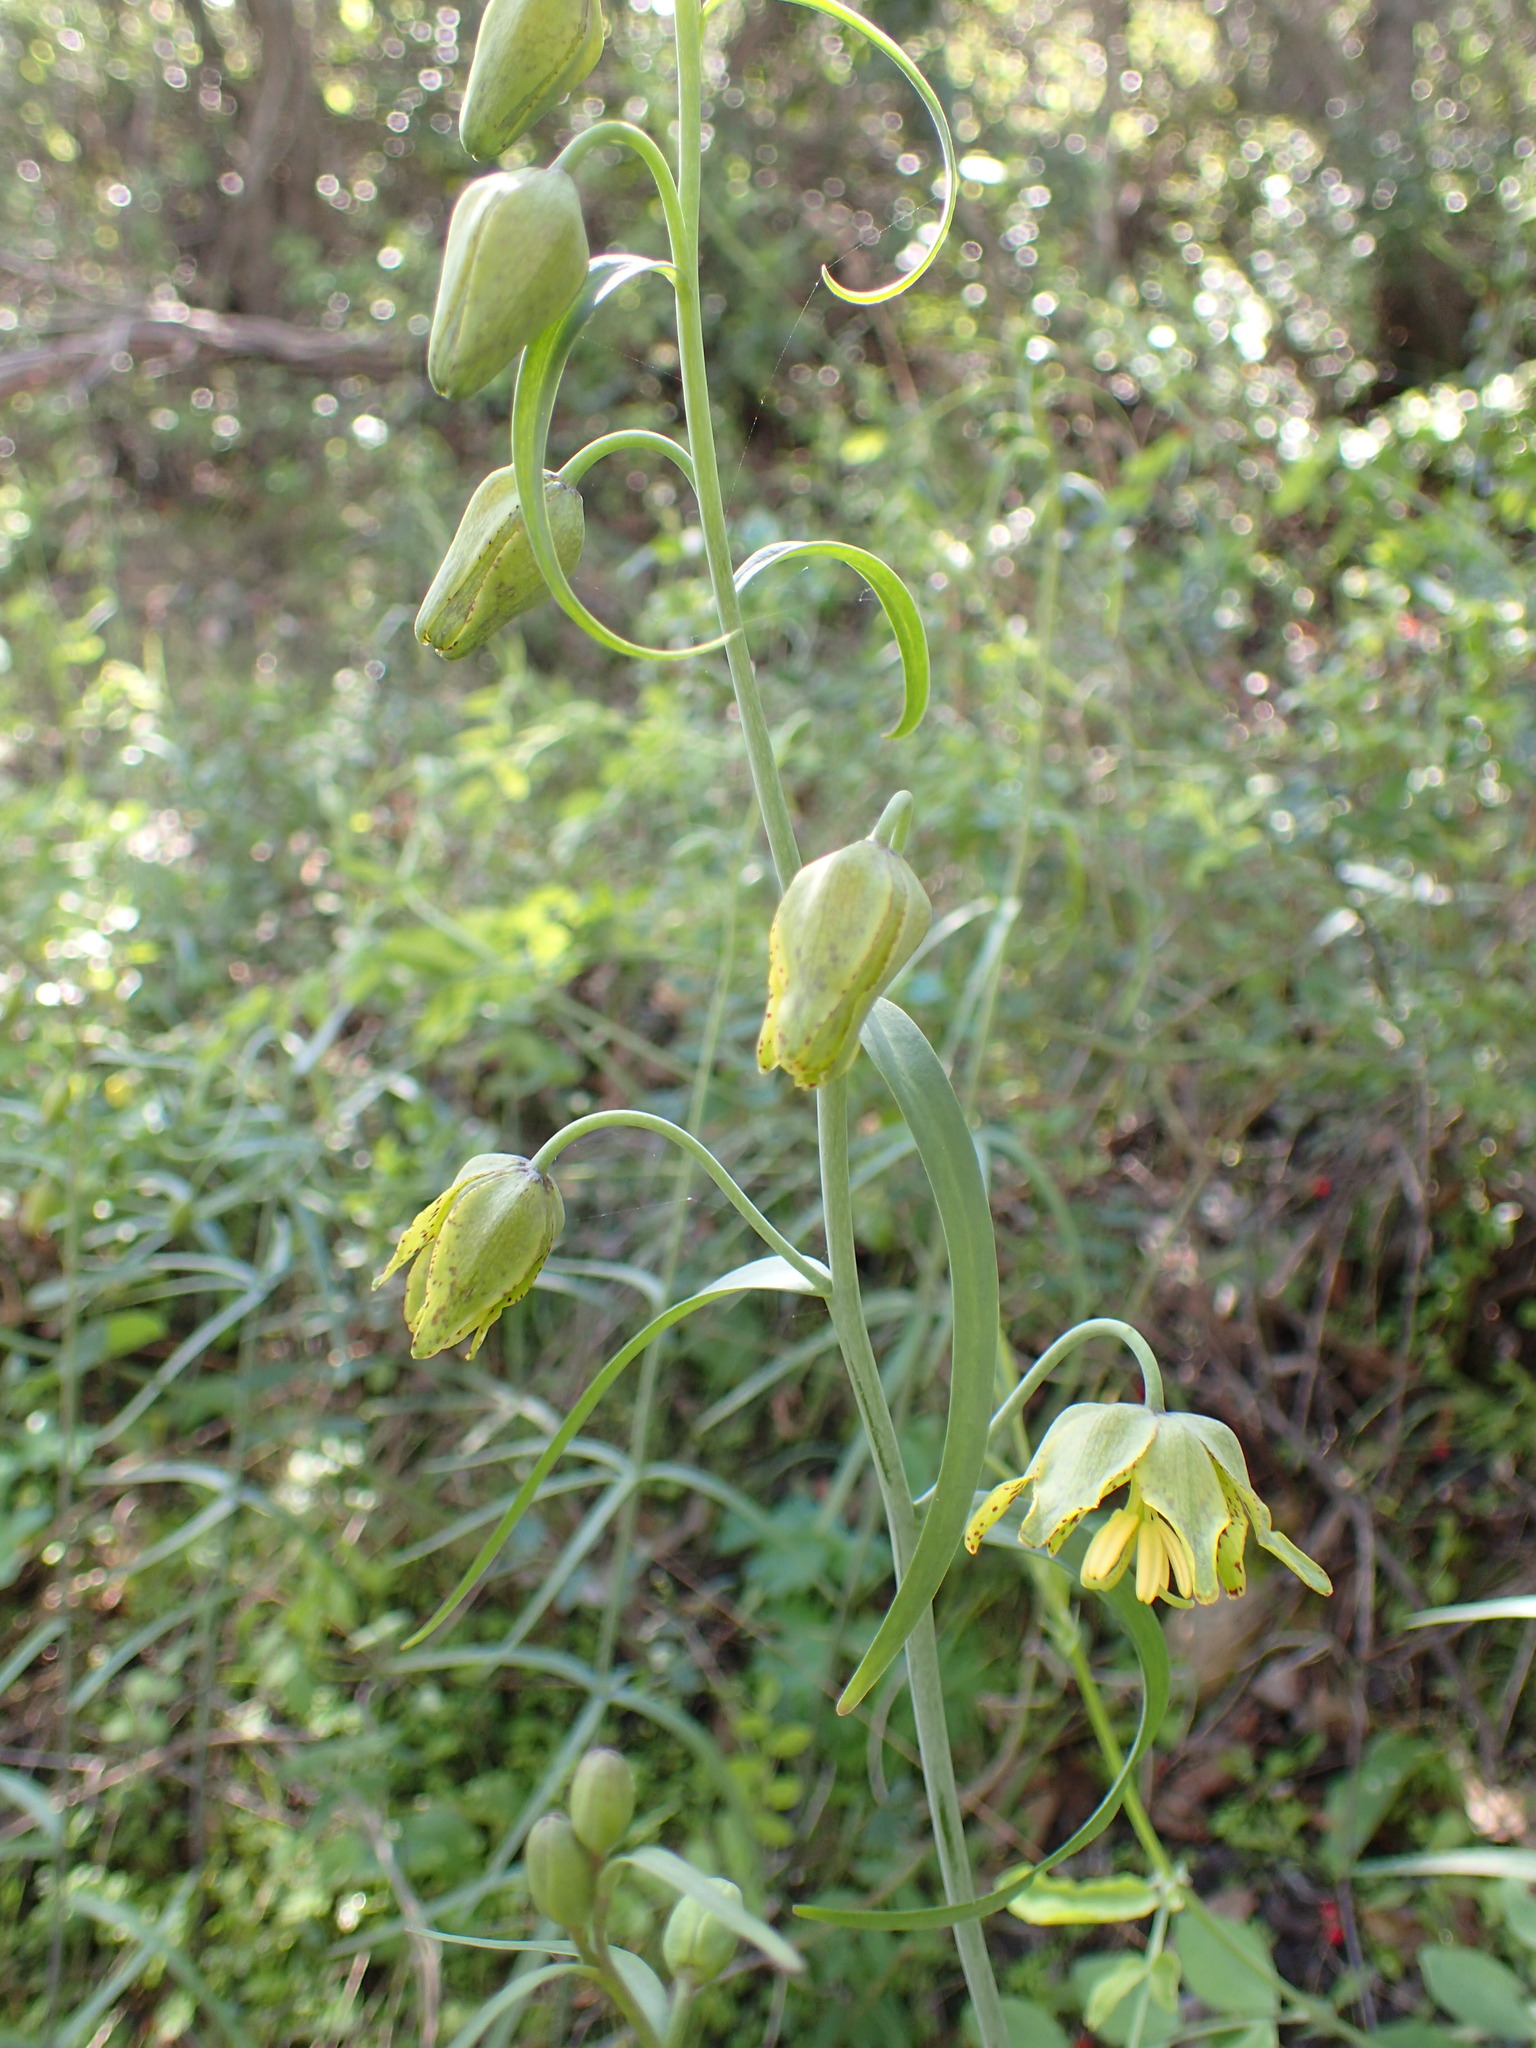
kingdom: Plantae
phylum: Tracheophyta
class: Liliopsida
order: Liliales
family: Liliaceae
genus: Fritillaria
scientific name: Fritillaria ojaiensis
